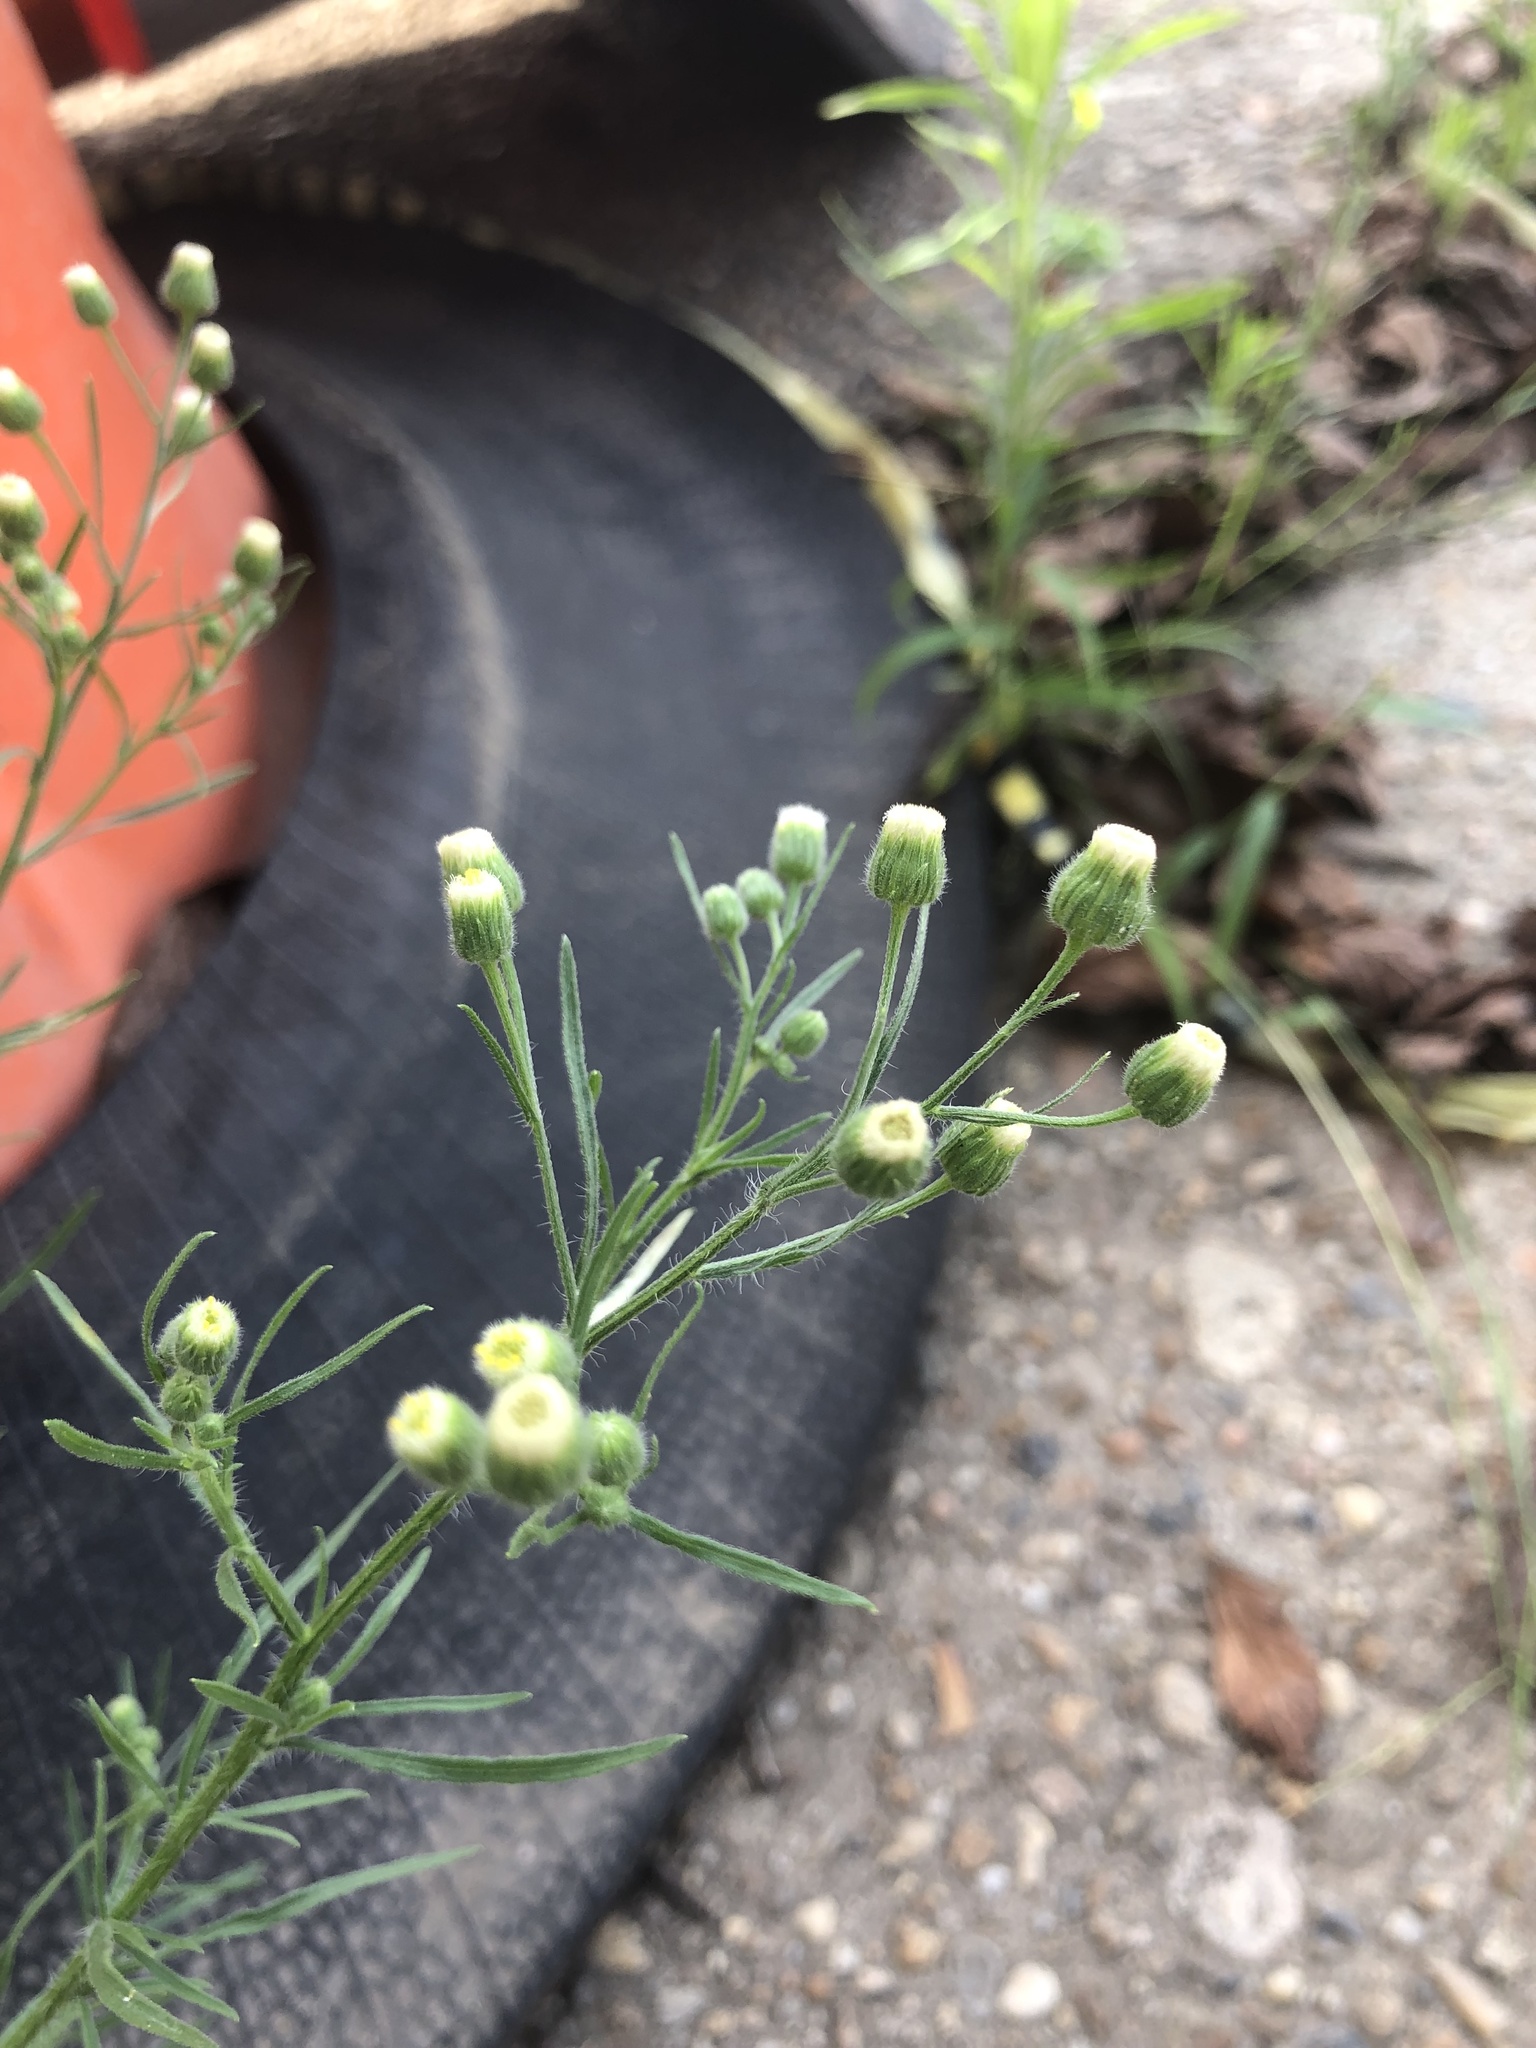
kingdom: Plantae
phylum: Tracheophyta
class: Magnoliopsida
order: Asterales
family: Asteraceae
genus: Erigeron
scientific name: Erigeron bonariensis
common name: Argentine fleabane
